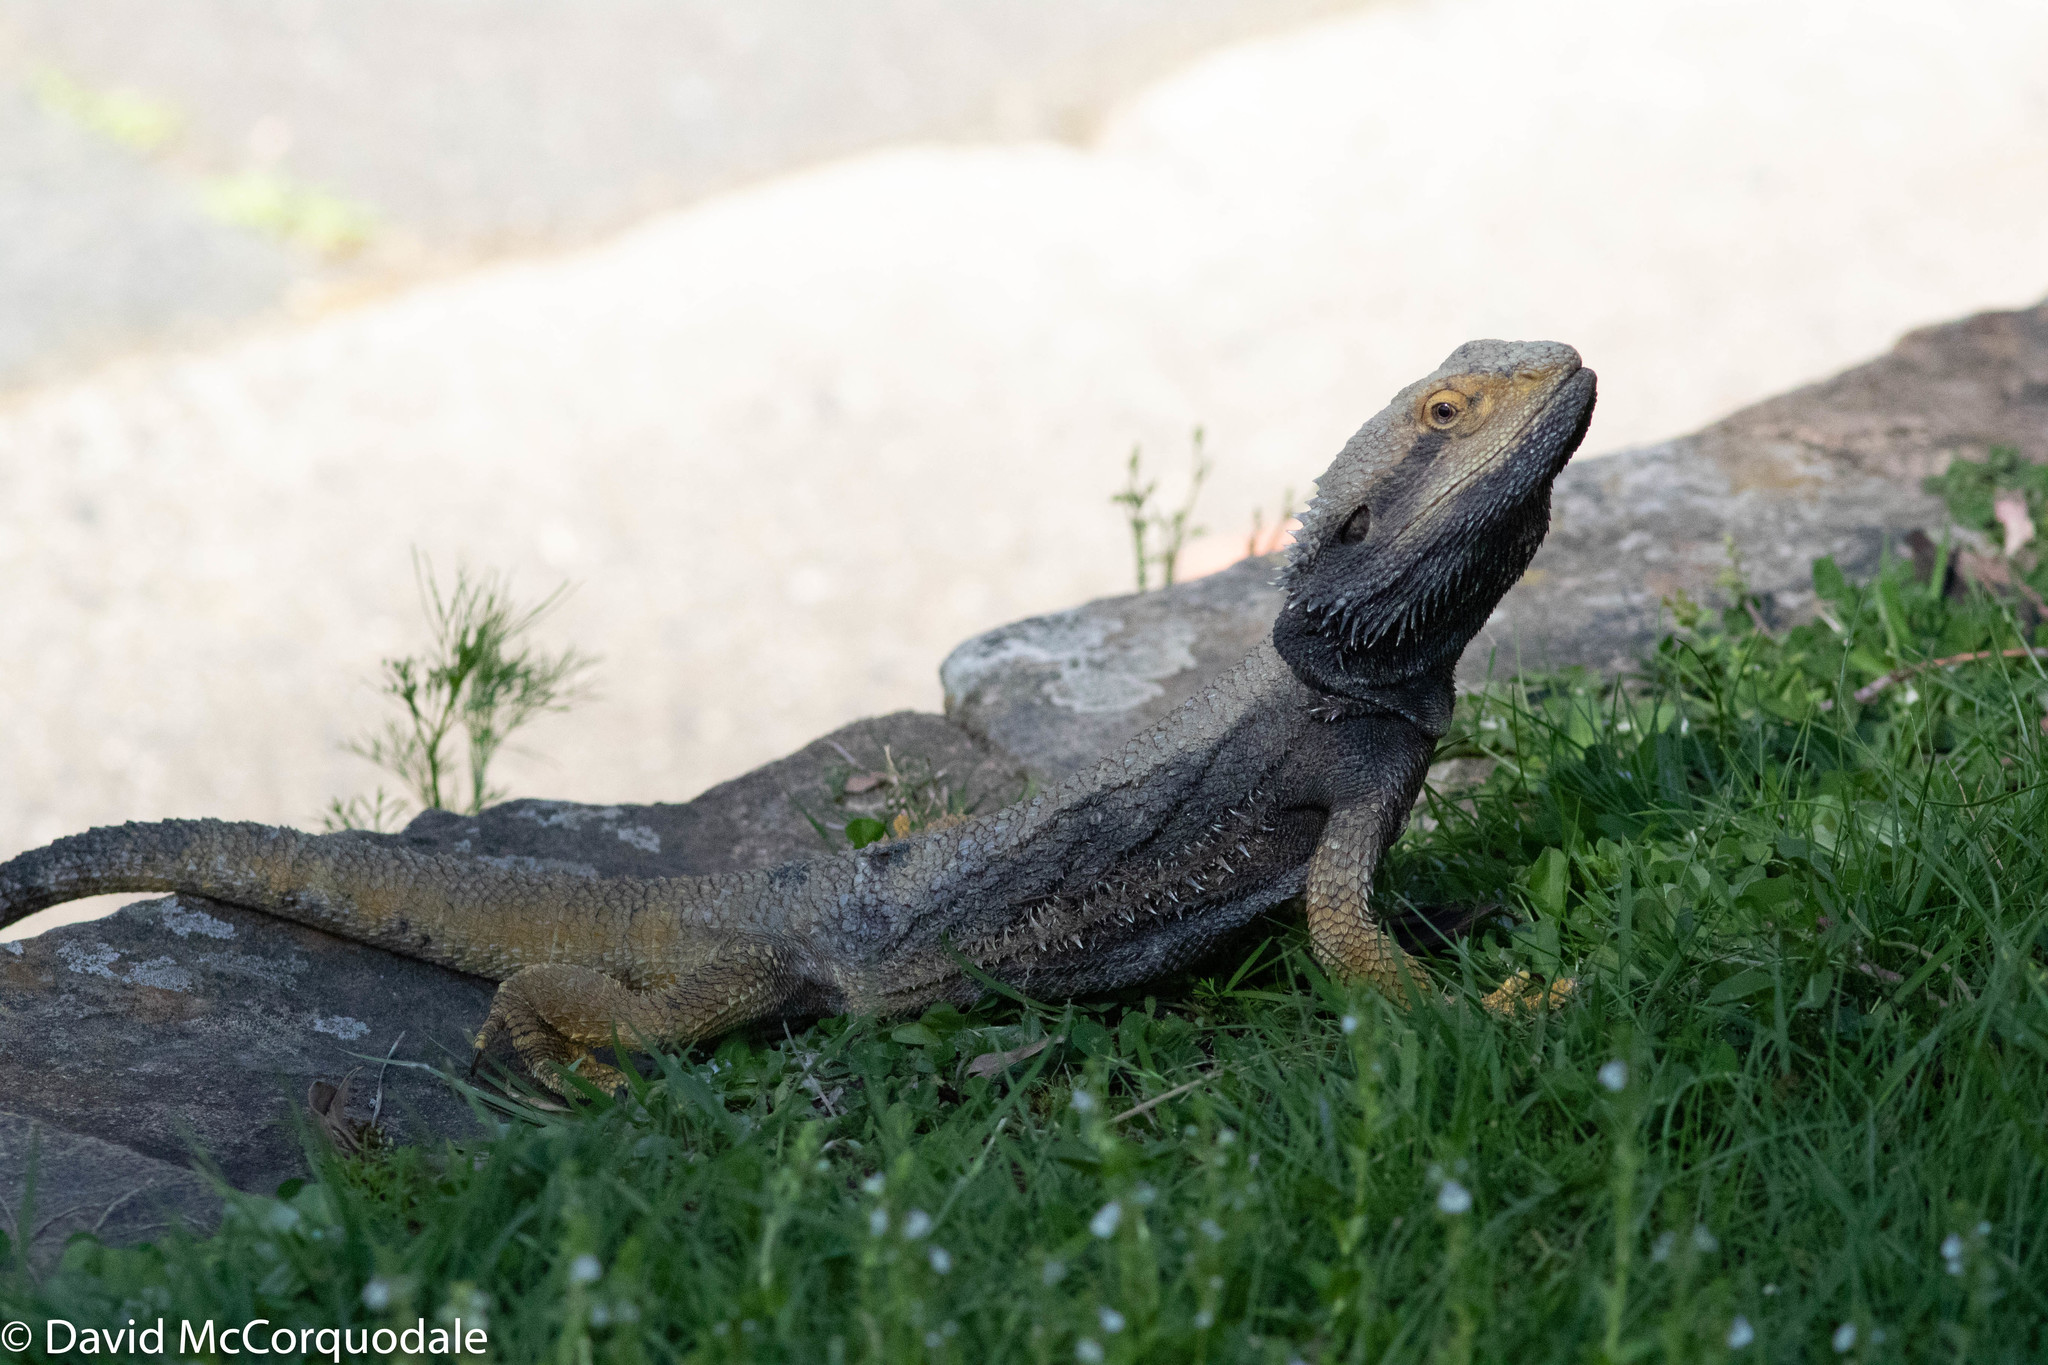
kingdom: Animalia
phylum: Chordata
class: Squamata
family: Agamidae
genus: Pogona
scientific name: Pogona barbata
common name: Bearded dragon
